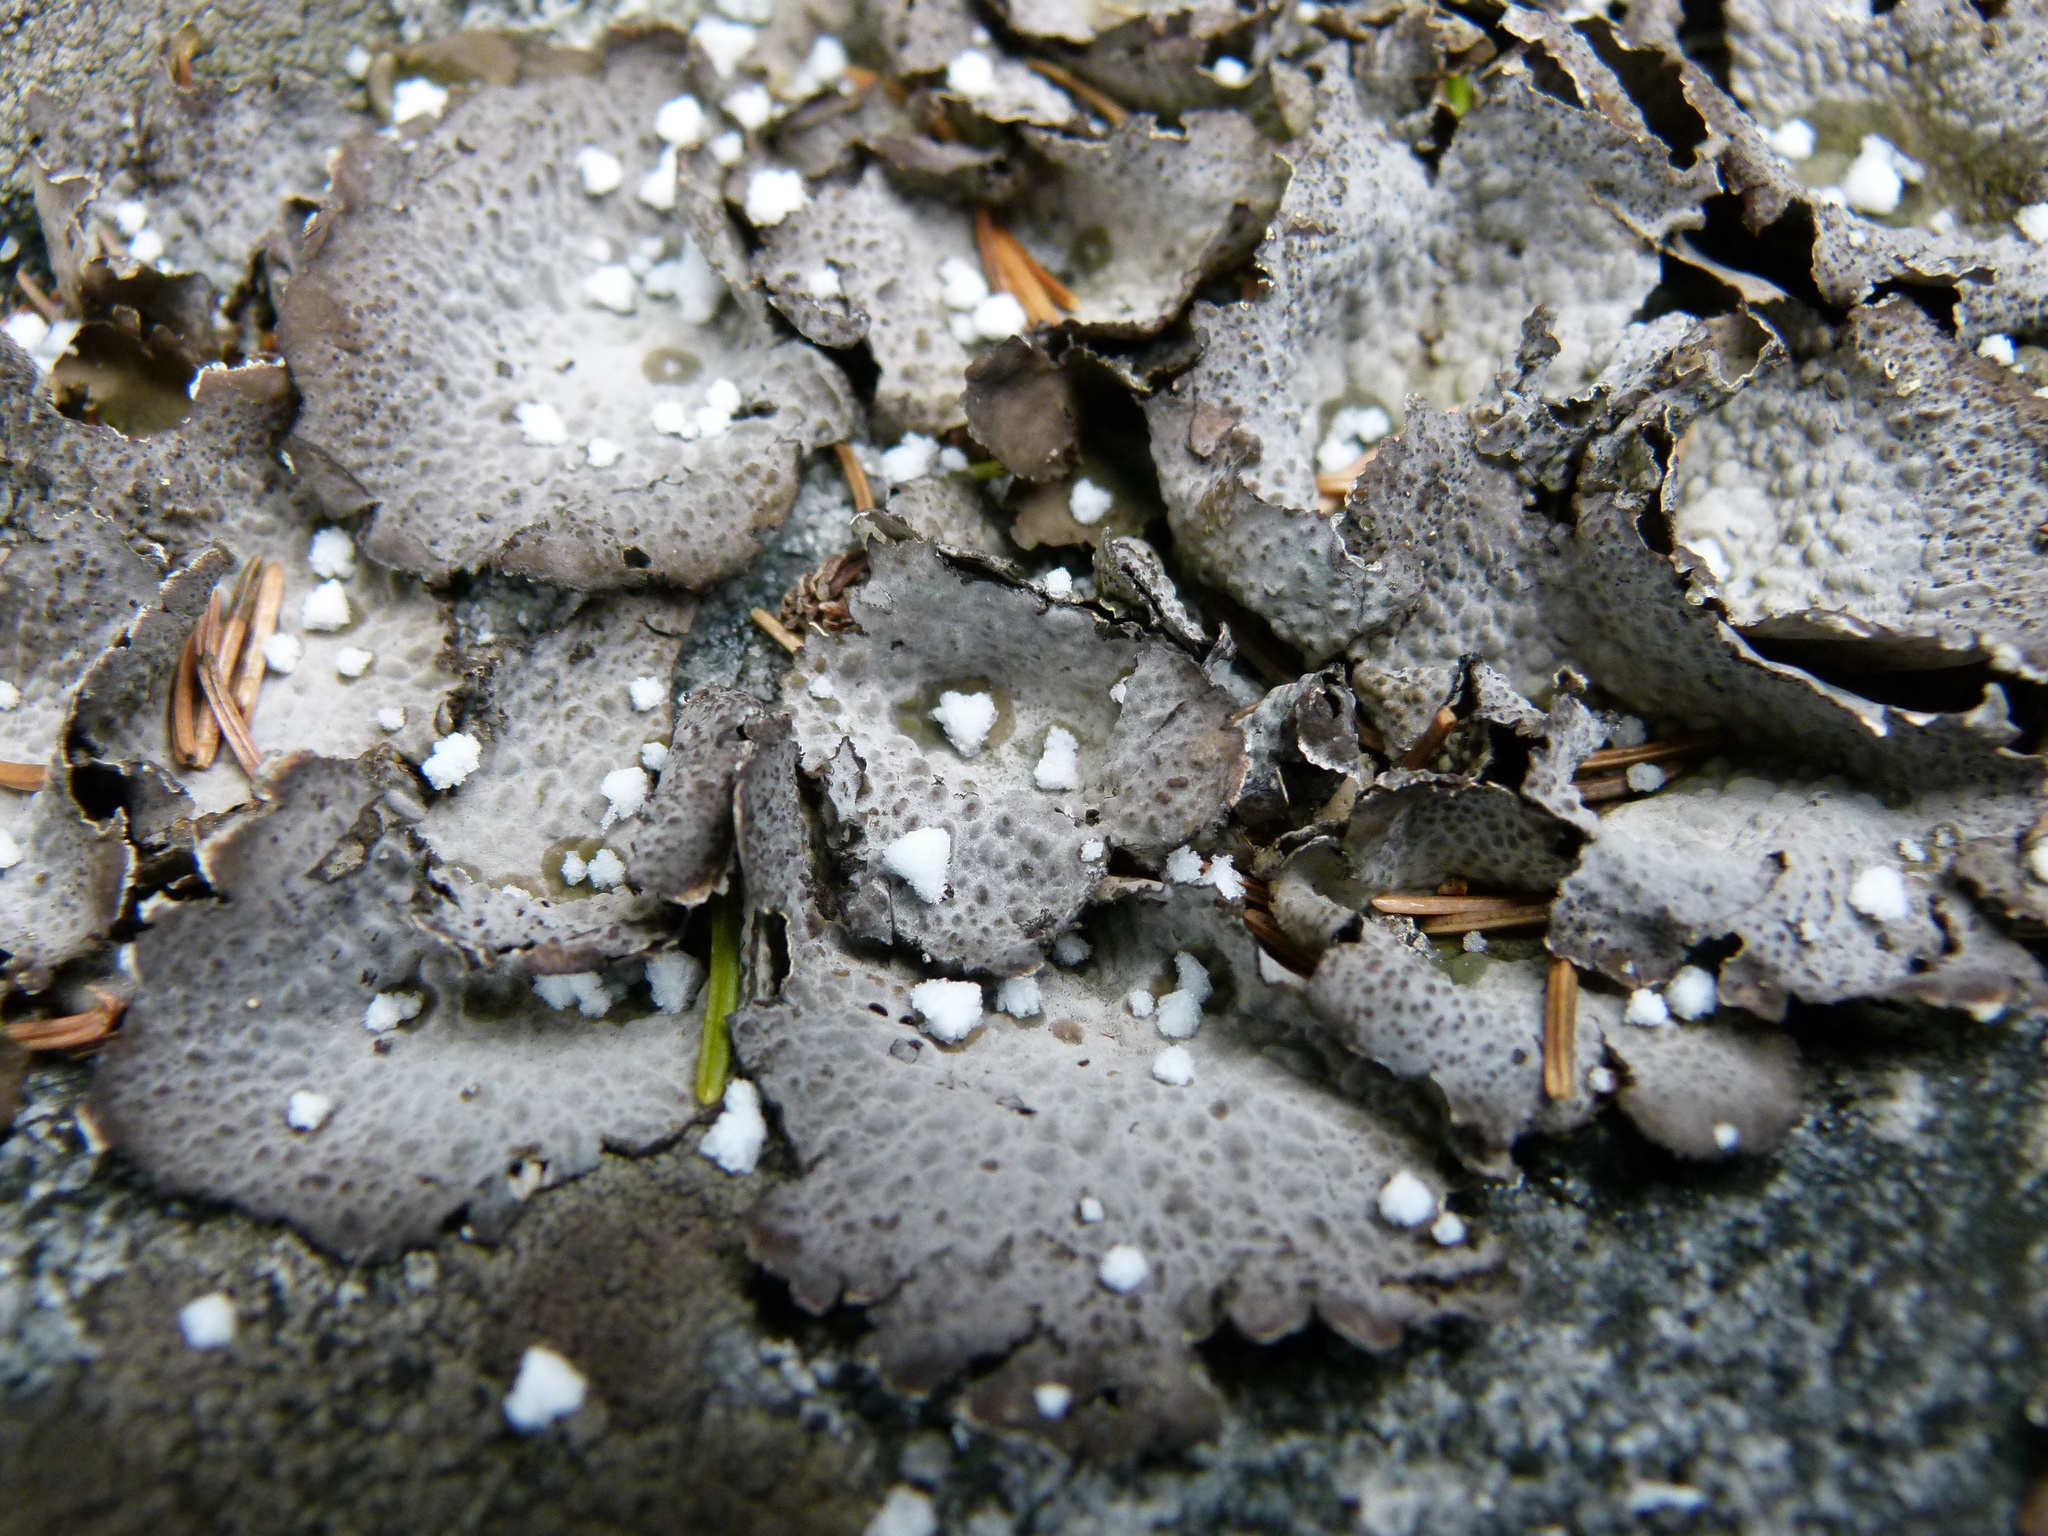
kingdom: Fungi
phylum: Ascomycota
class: Lecanoromycetes
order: Umbilicariales
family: Umbilicariaceae
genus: Lasallia
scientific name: Lasallia papulosa
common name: Common toadskin lichen
